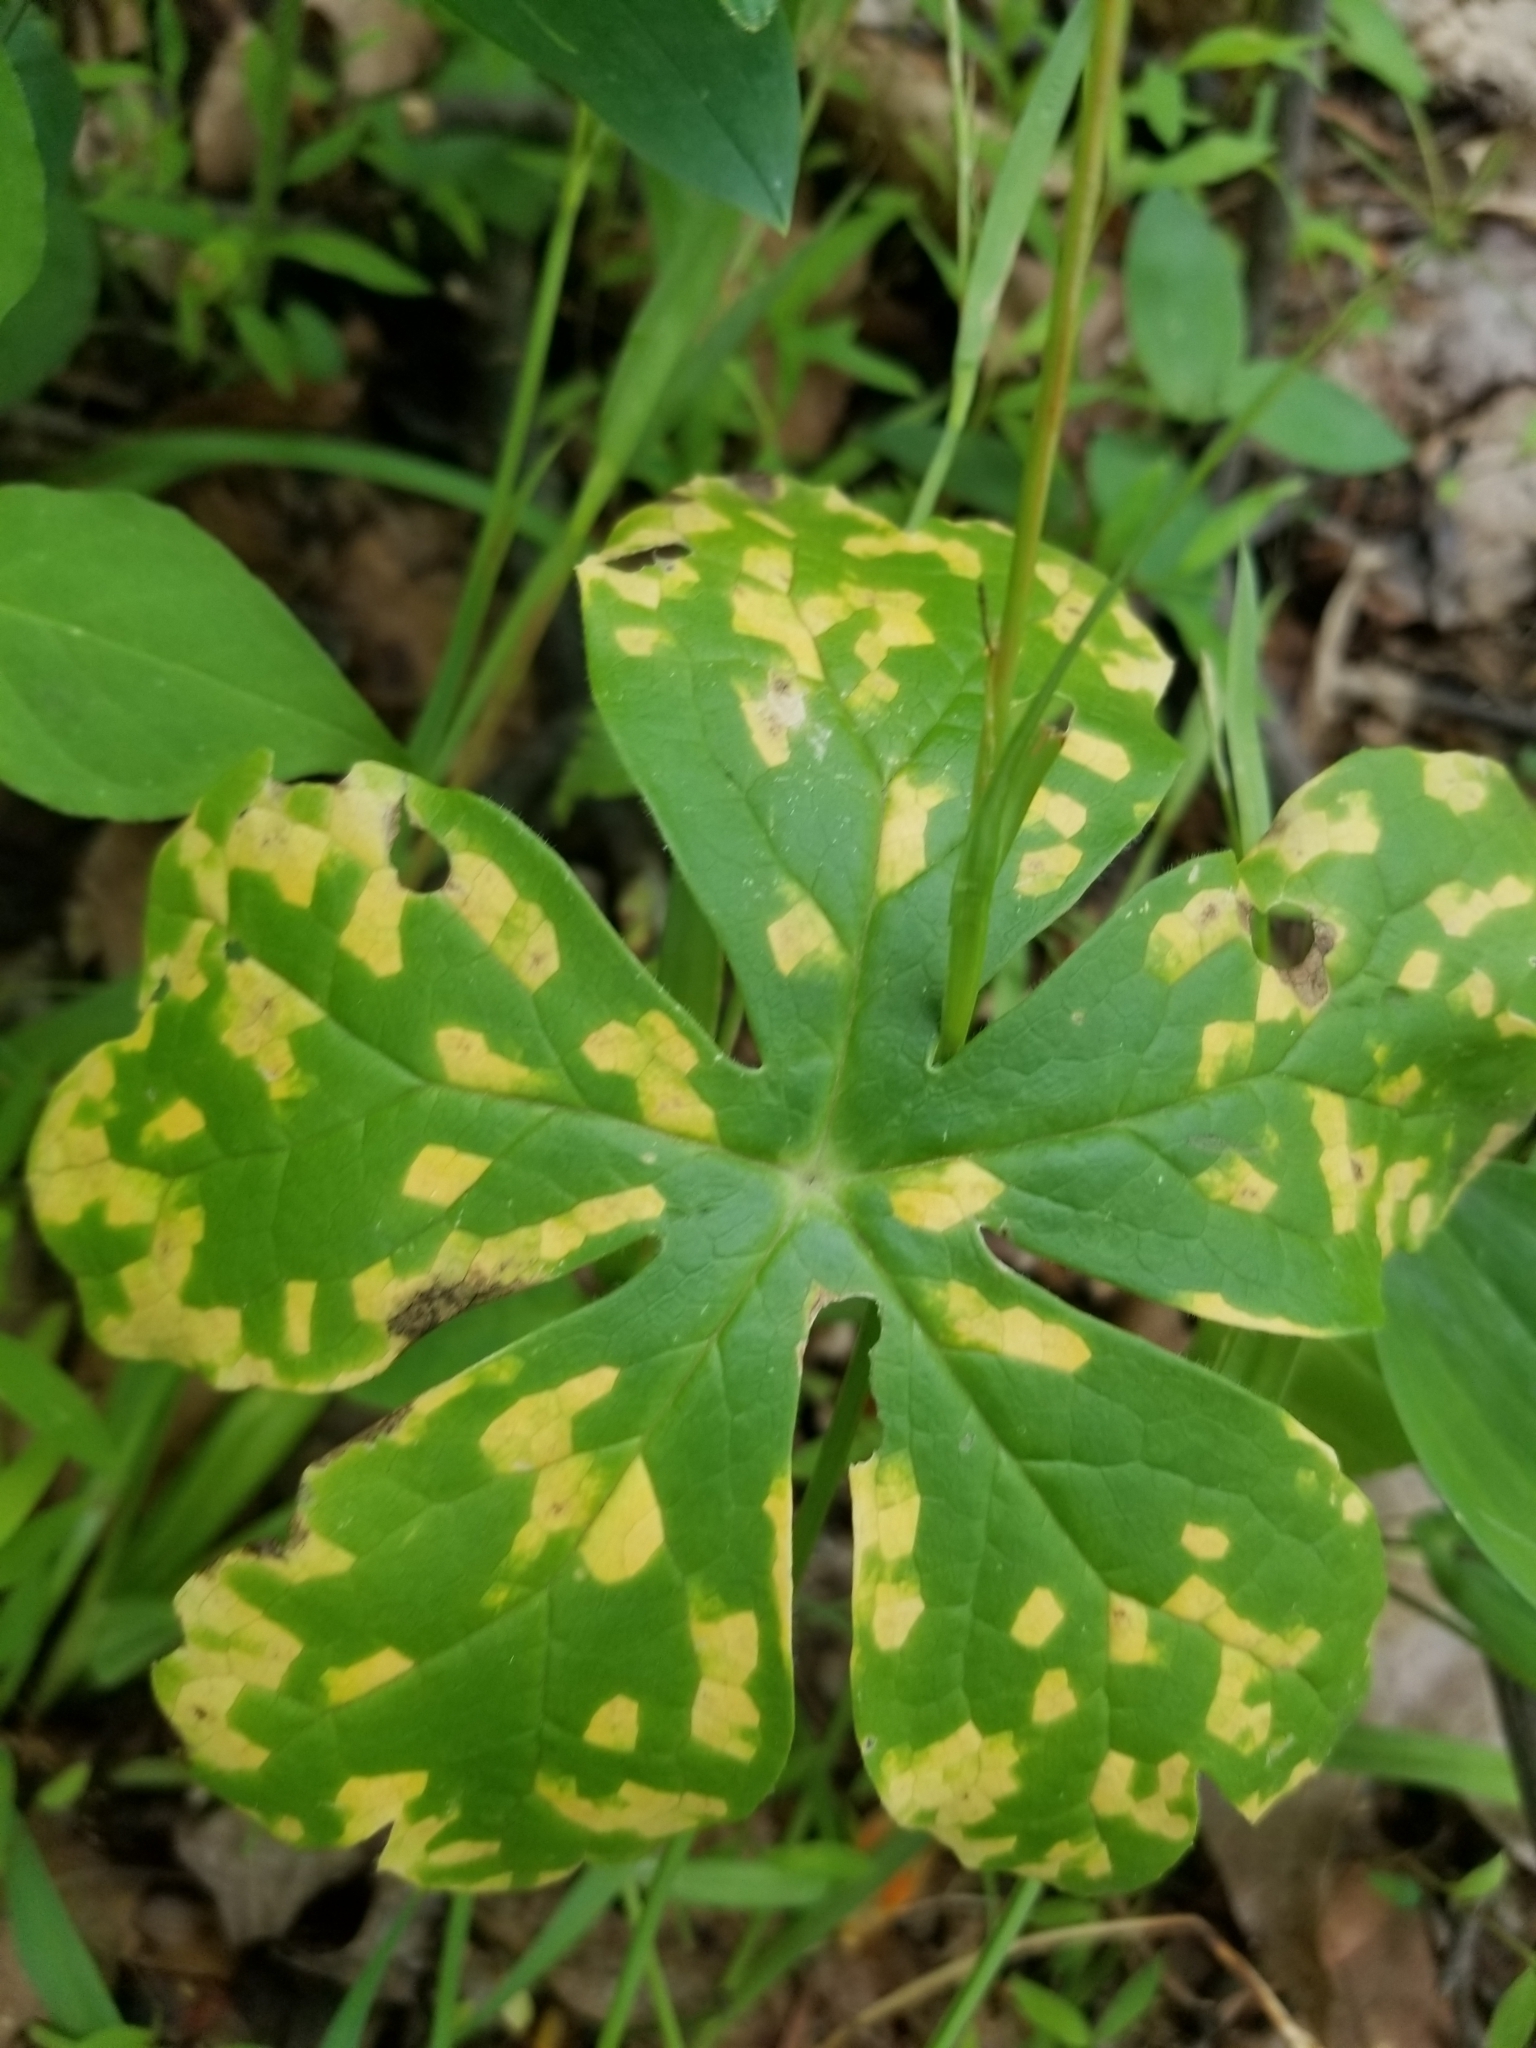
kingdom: Fungi
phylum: Basidiomycota
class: Pucciniomycetes
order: Pucciniales
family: Pucciniaceae
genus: Puccinia
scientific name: Puccinia podophylli
